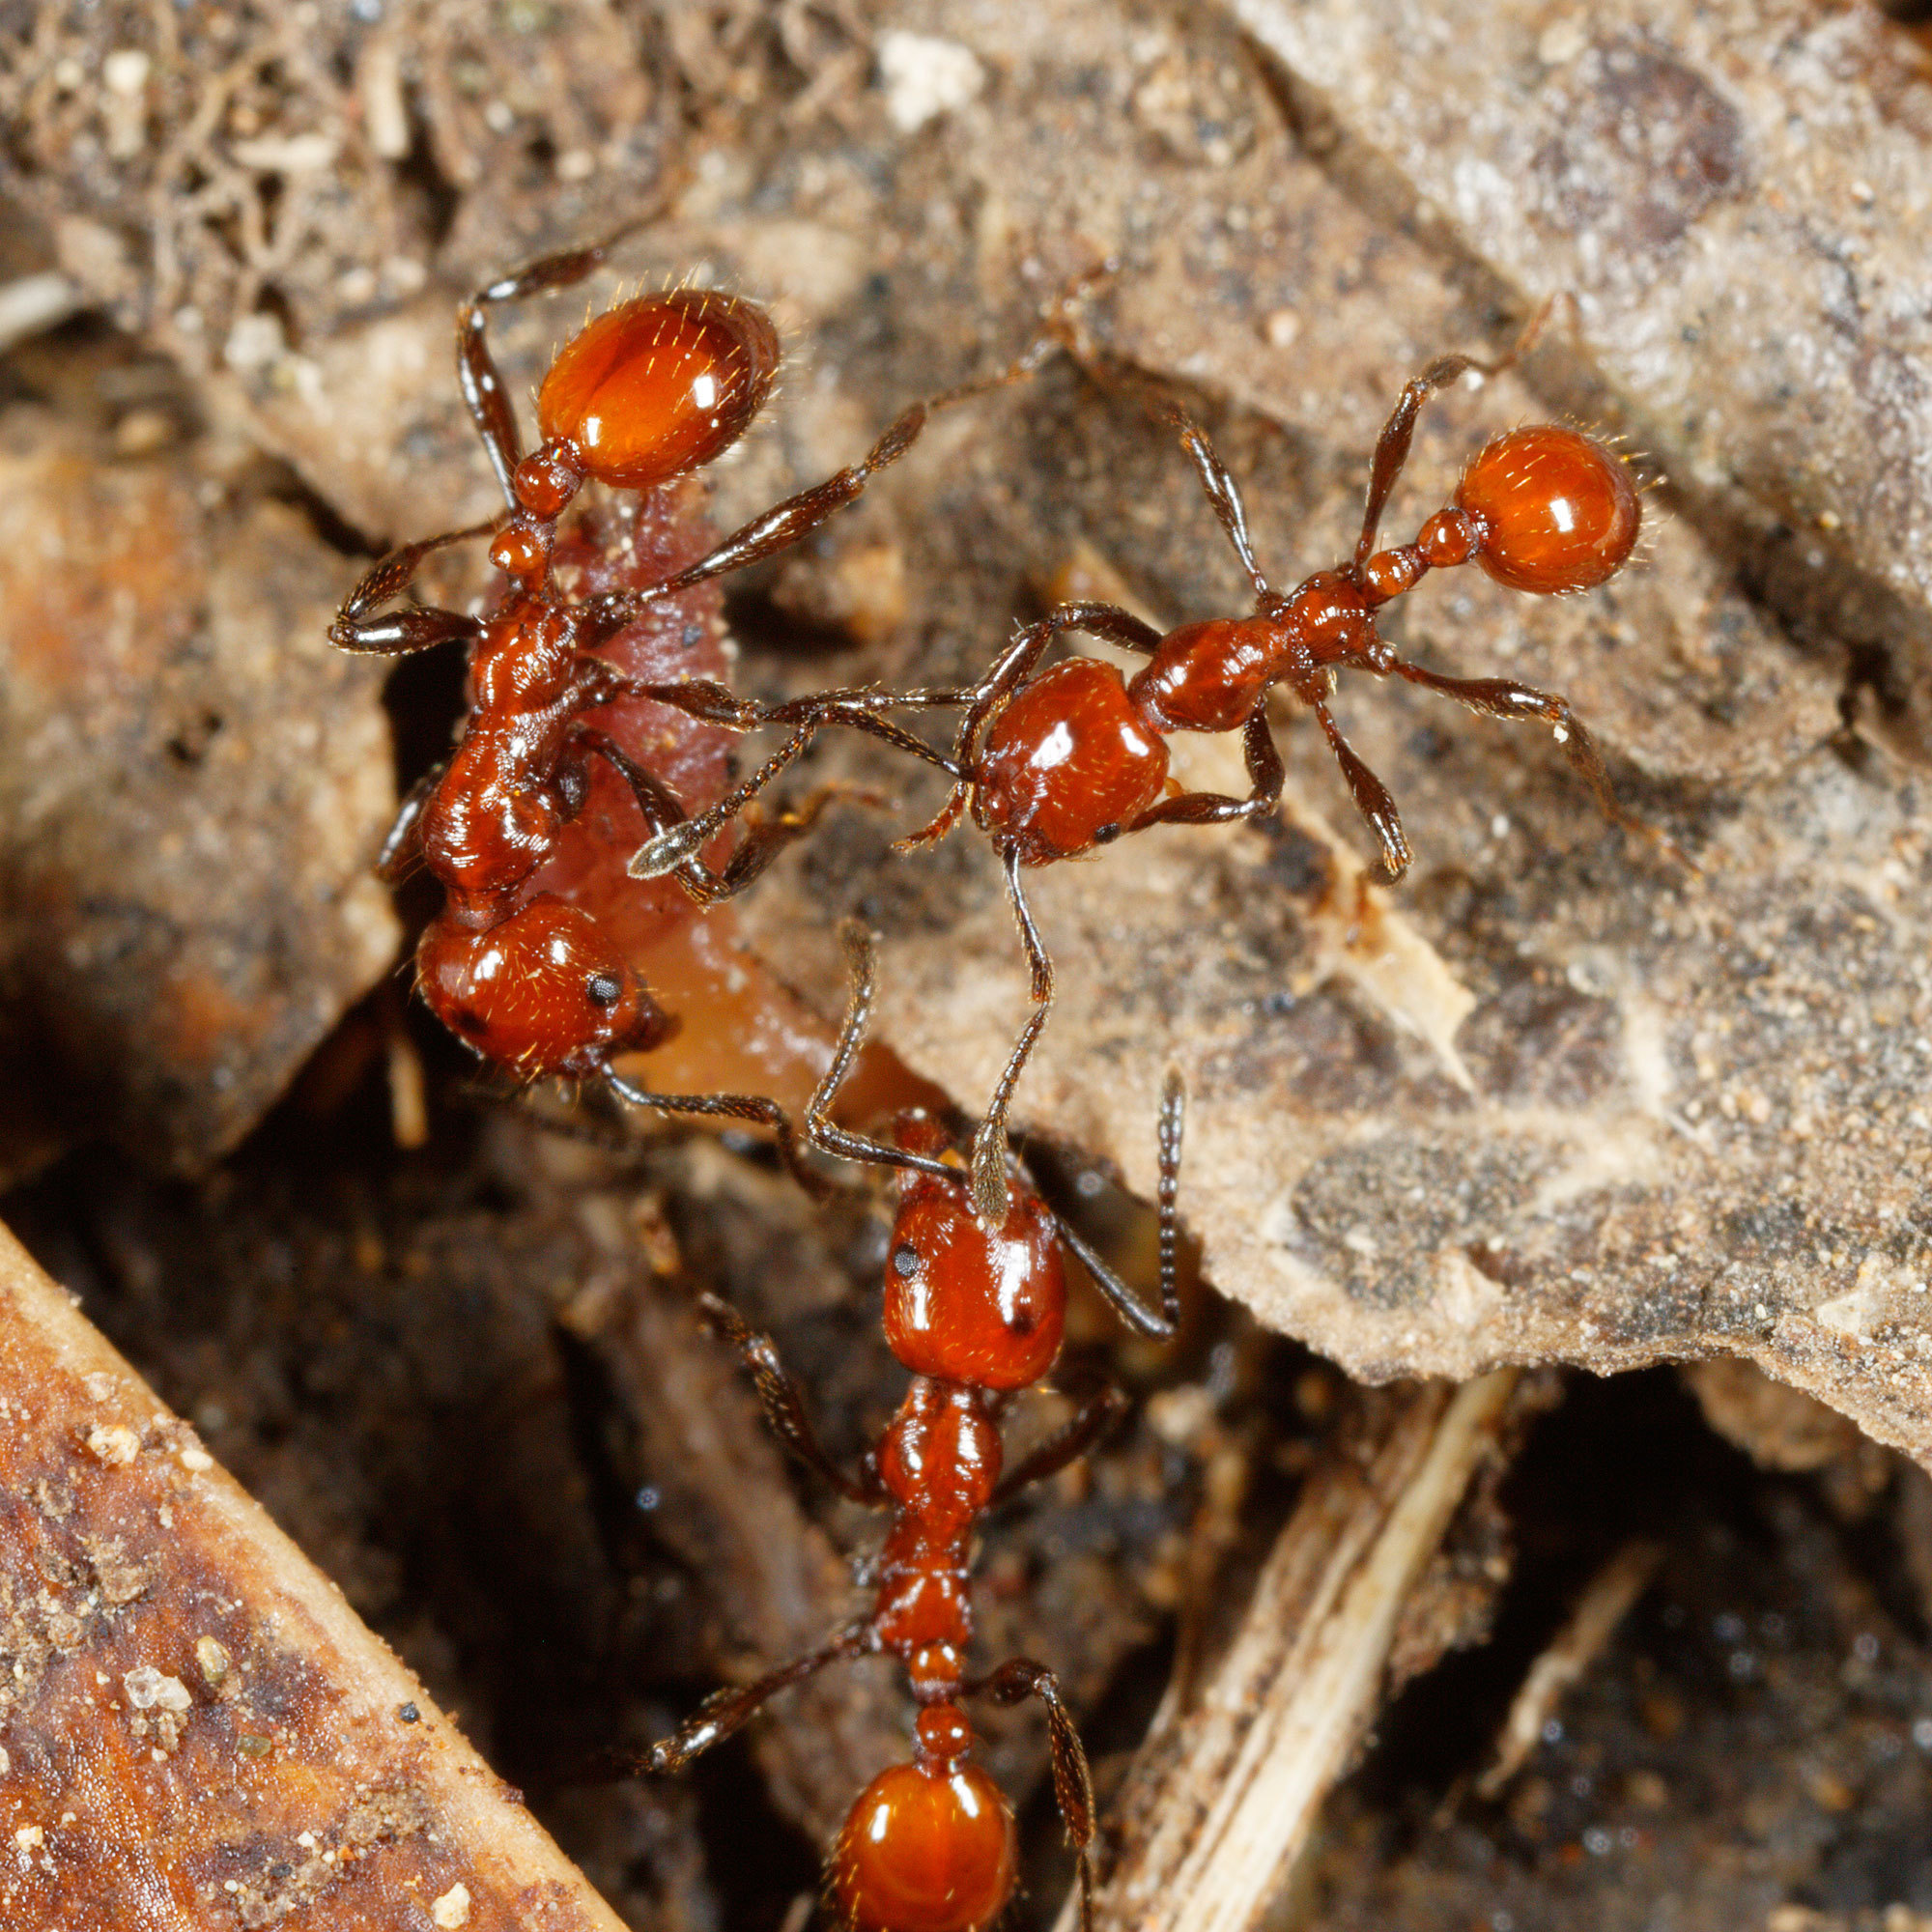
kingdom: Animalia
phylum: Arthropoda
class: Insecta
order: Hymenoptera
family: Formicidae
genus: Huberia
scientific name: Huberia striata
